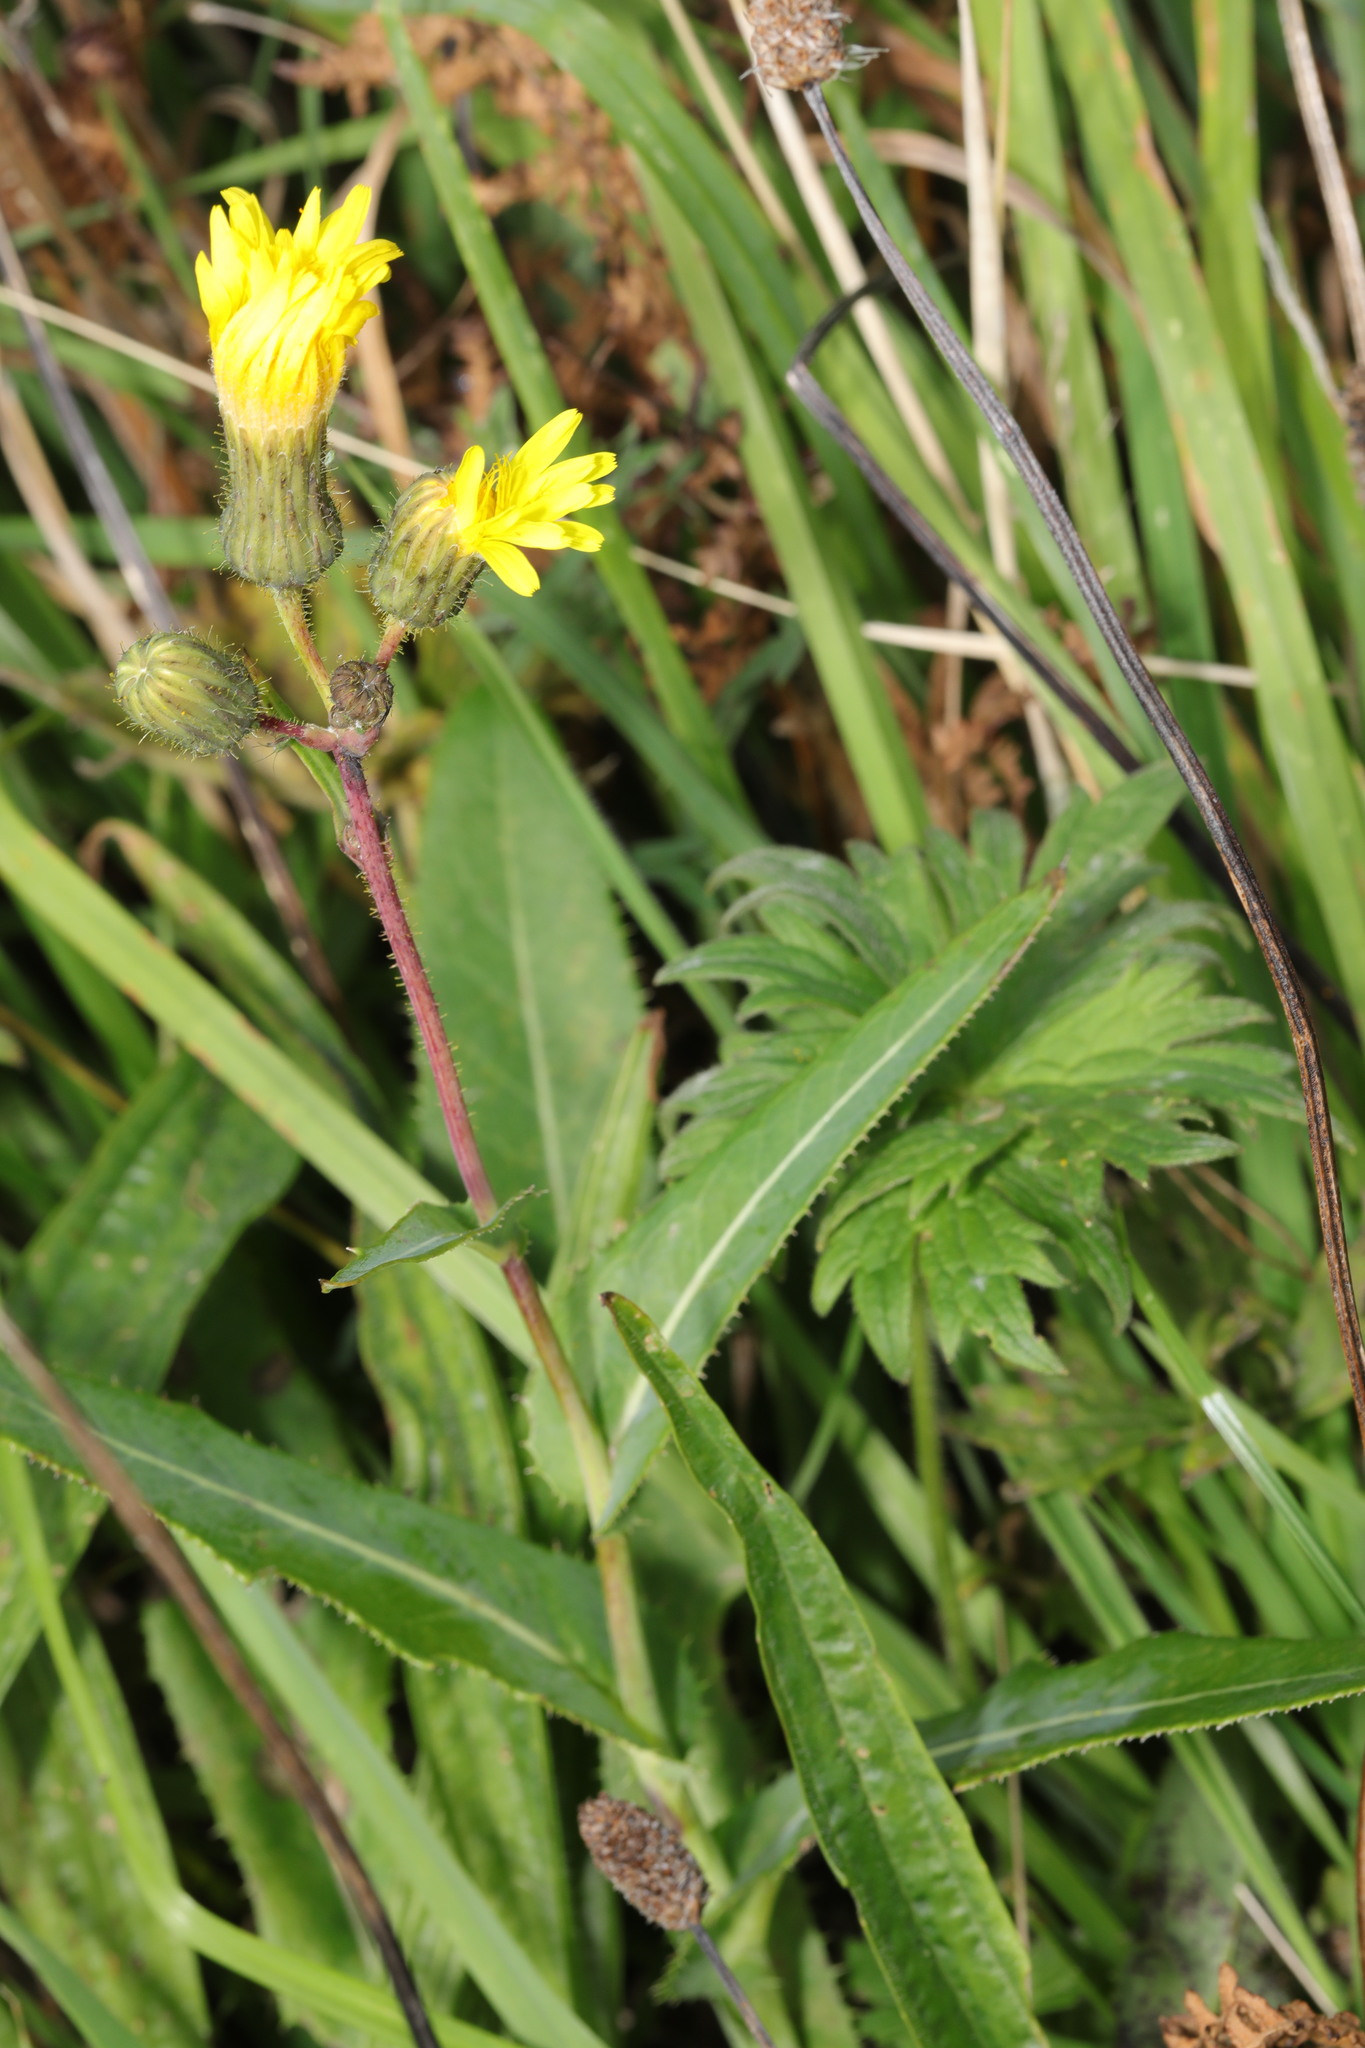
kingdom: Plantae
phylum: Tracheophyta
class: Magnoliopsida
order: Asterales
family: Asteraceae
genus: Sonchus
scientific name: Sonchus arvensis
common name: Perennial sow-thistle
